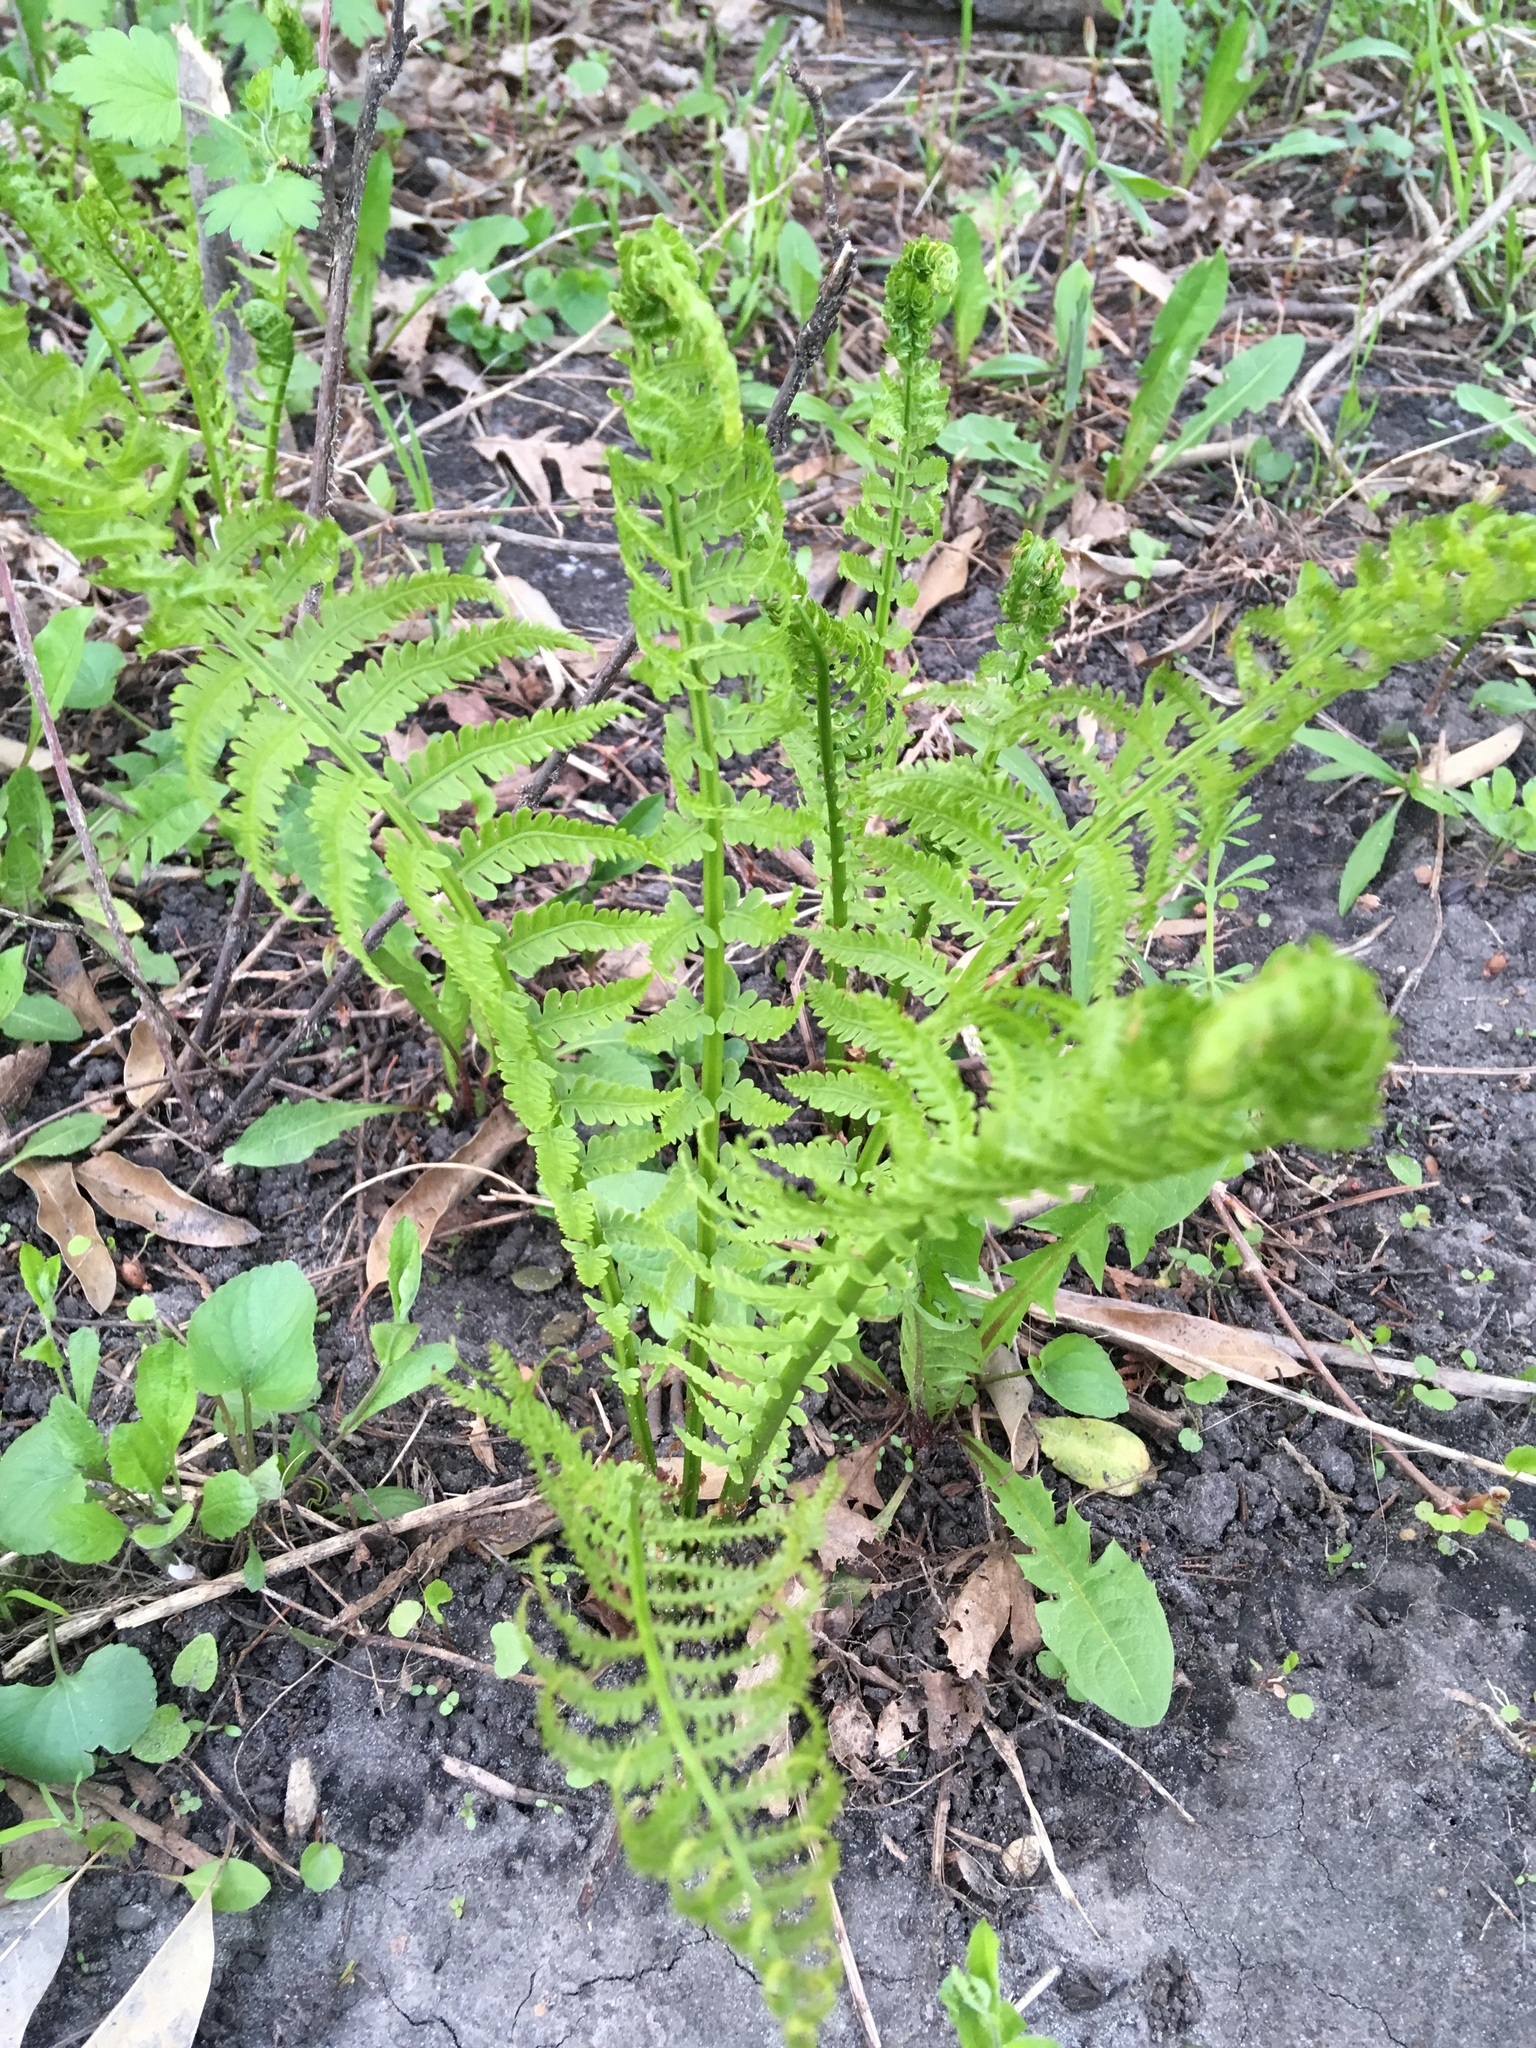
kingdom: Plantae
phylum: Tracheophyta
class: Polypodiopsida
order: Polypodiales
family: Onocleaceae
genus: Matteuccia
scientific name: Matteuccia struthiopteris
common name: Ostrich fern
